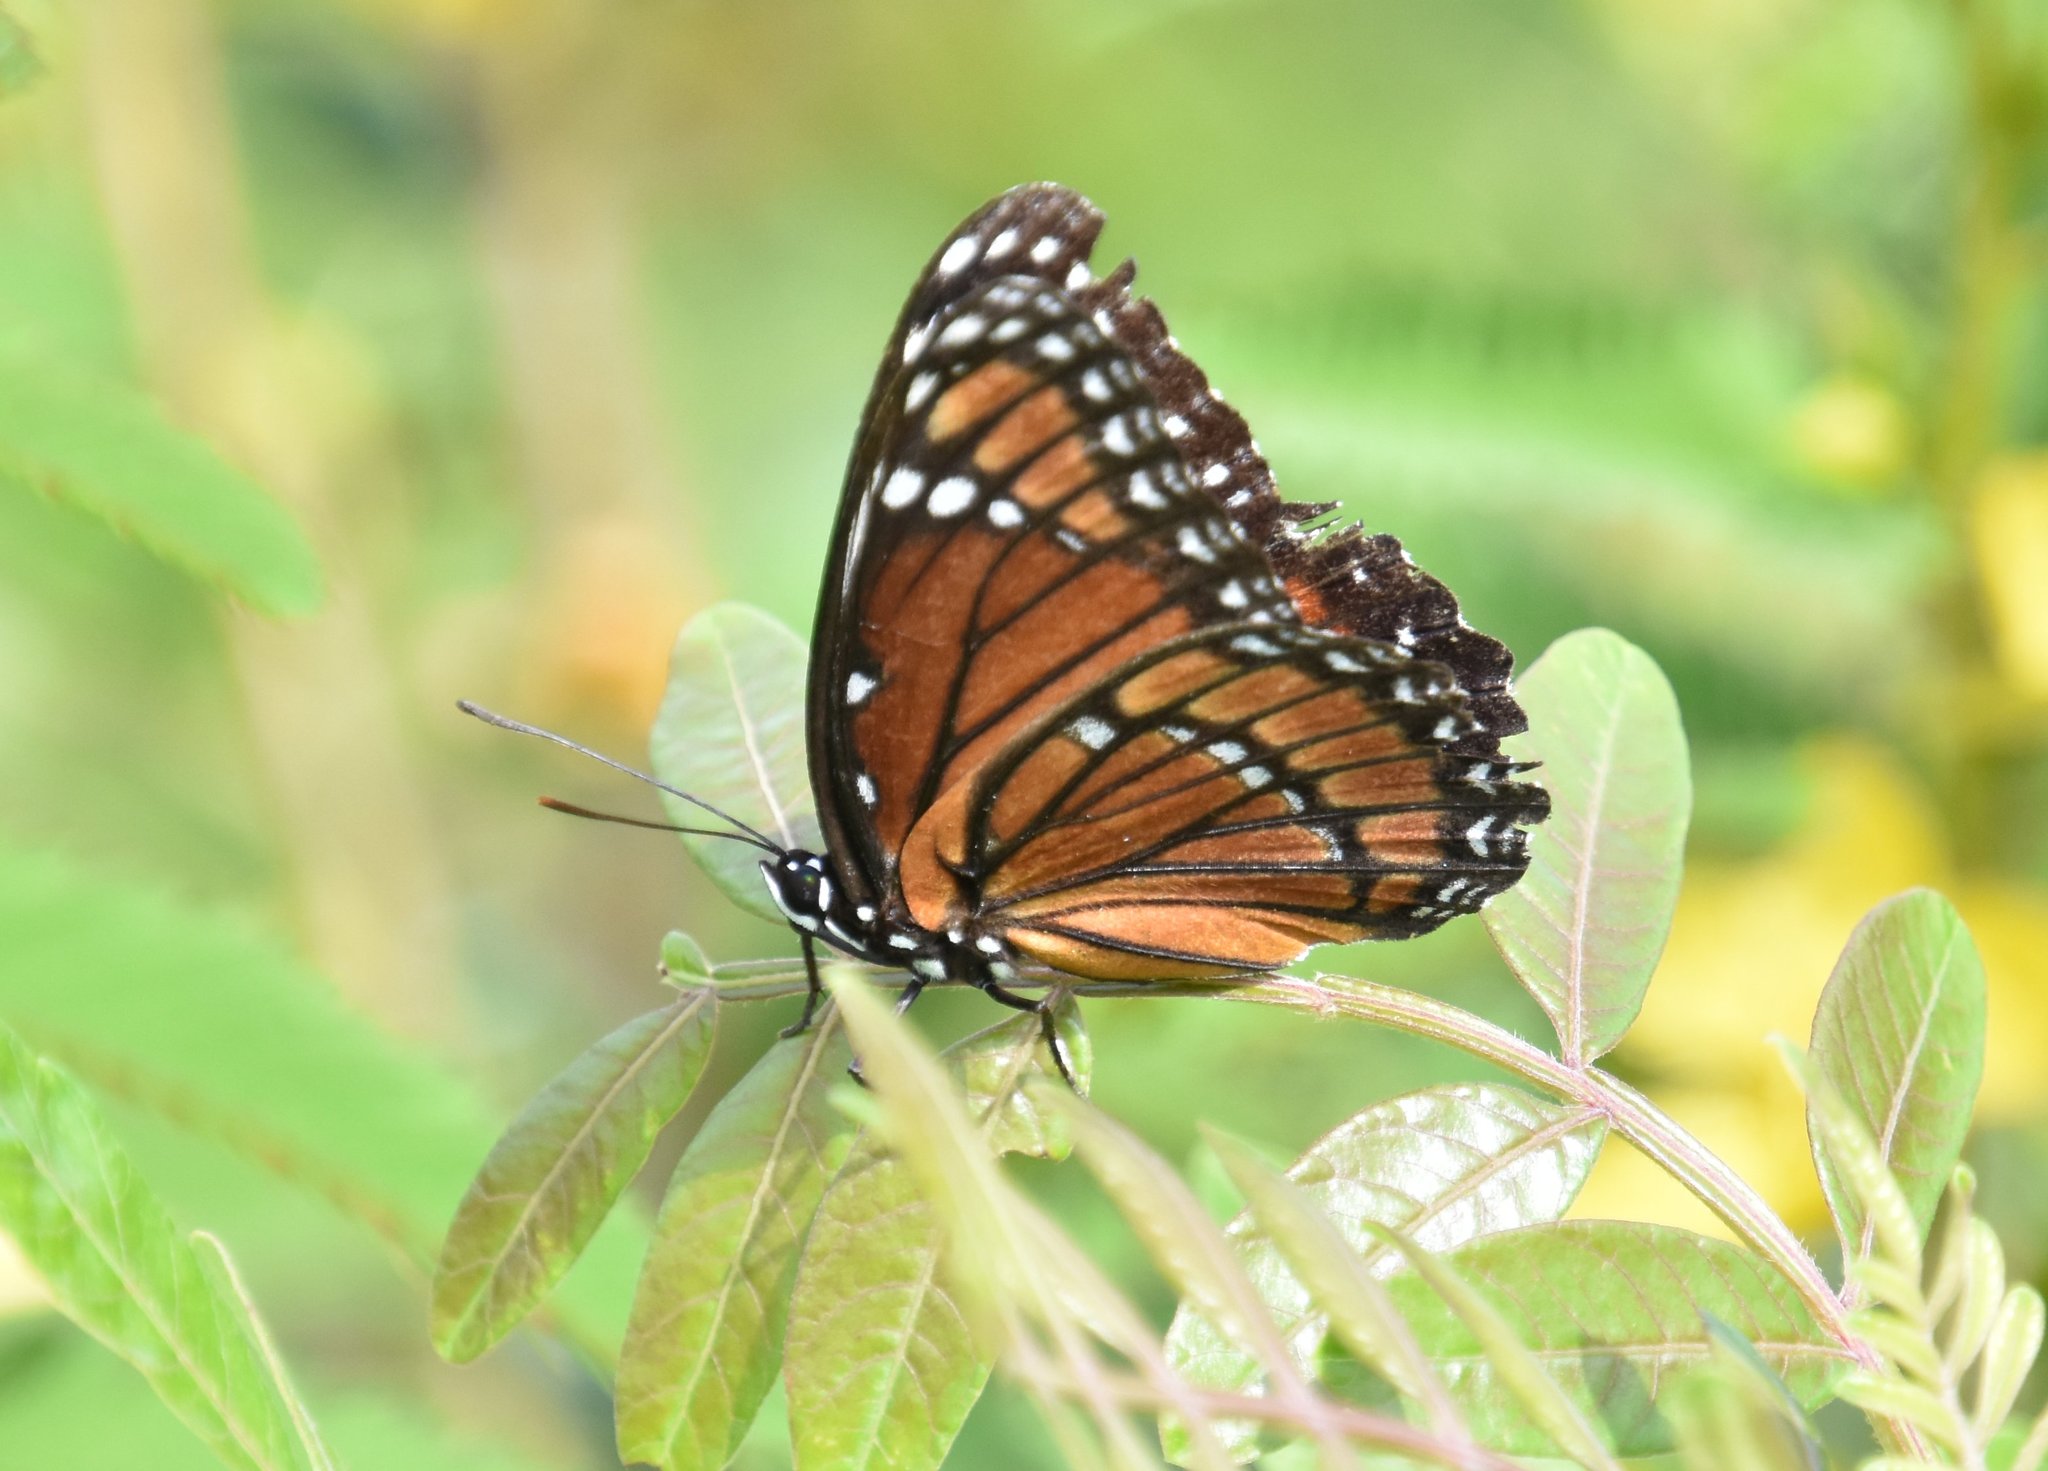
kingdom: Animalia
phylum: Arthropoda
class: Insecta
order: Lepidoptera
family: Nymphalidae
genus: Limenitis
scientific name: Limenitis archippus
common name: Viceroy
